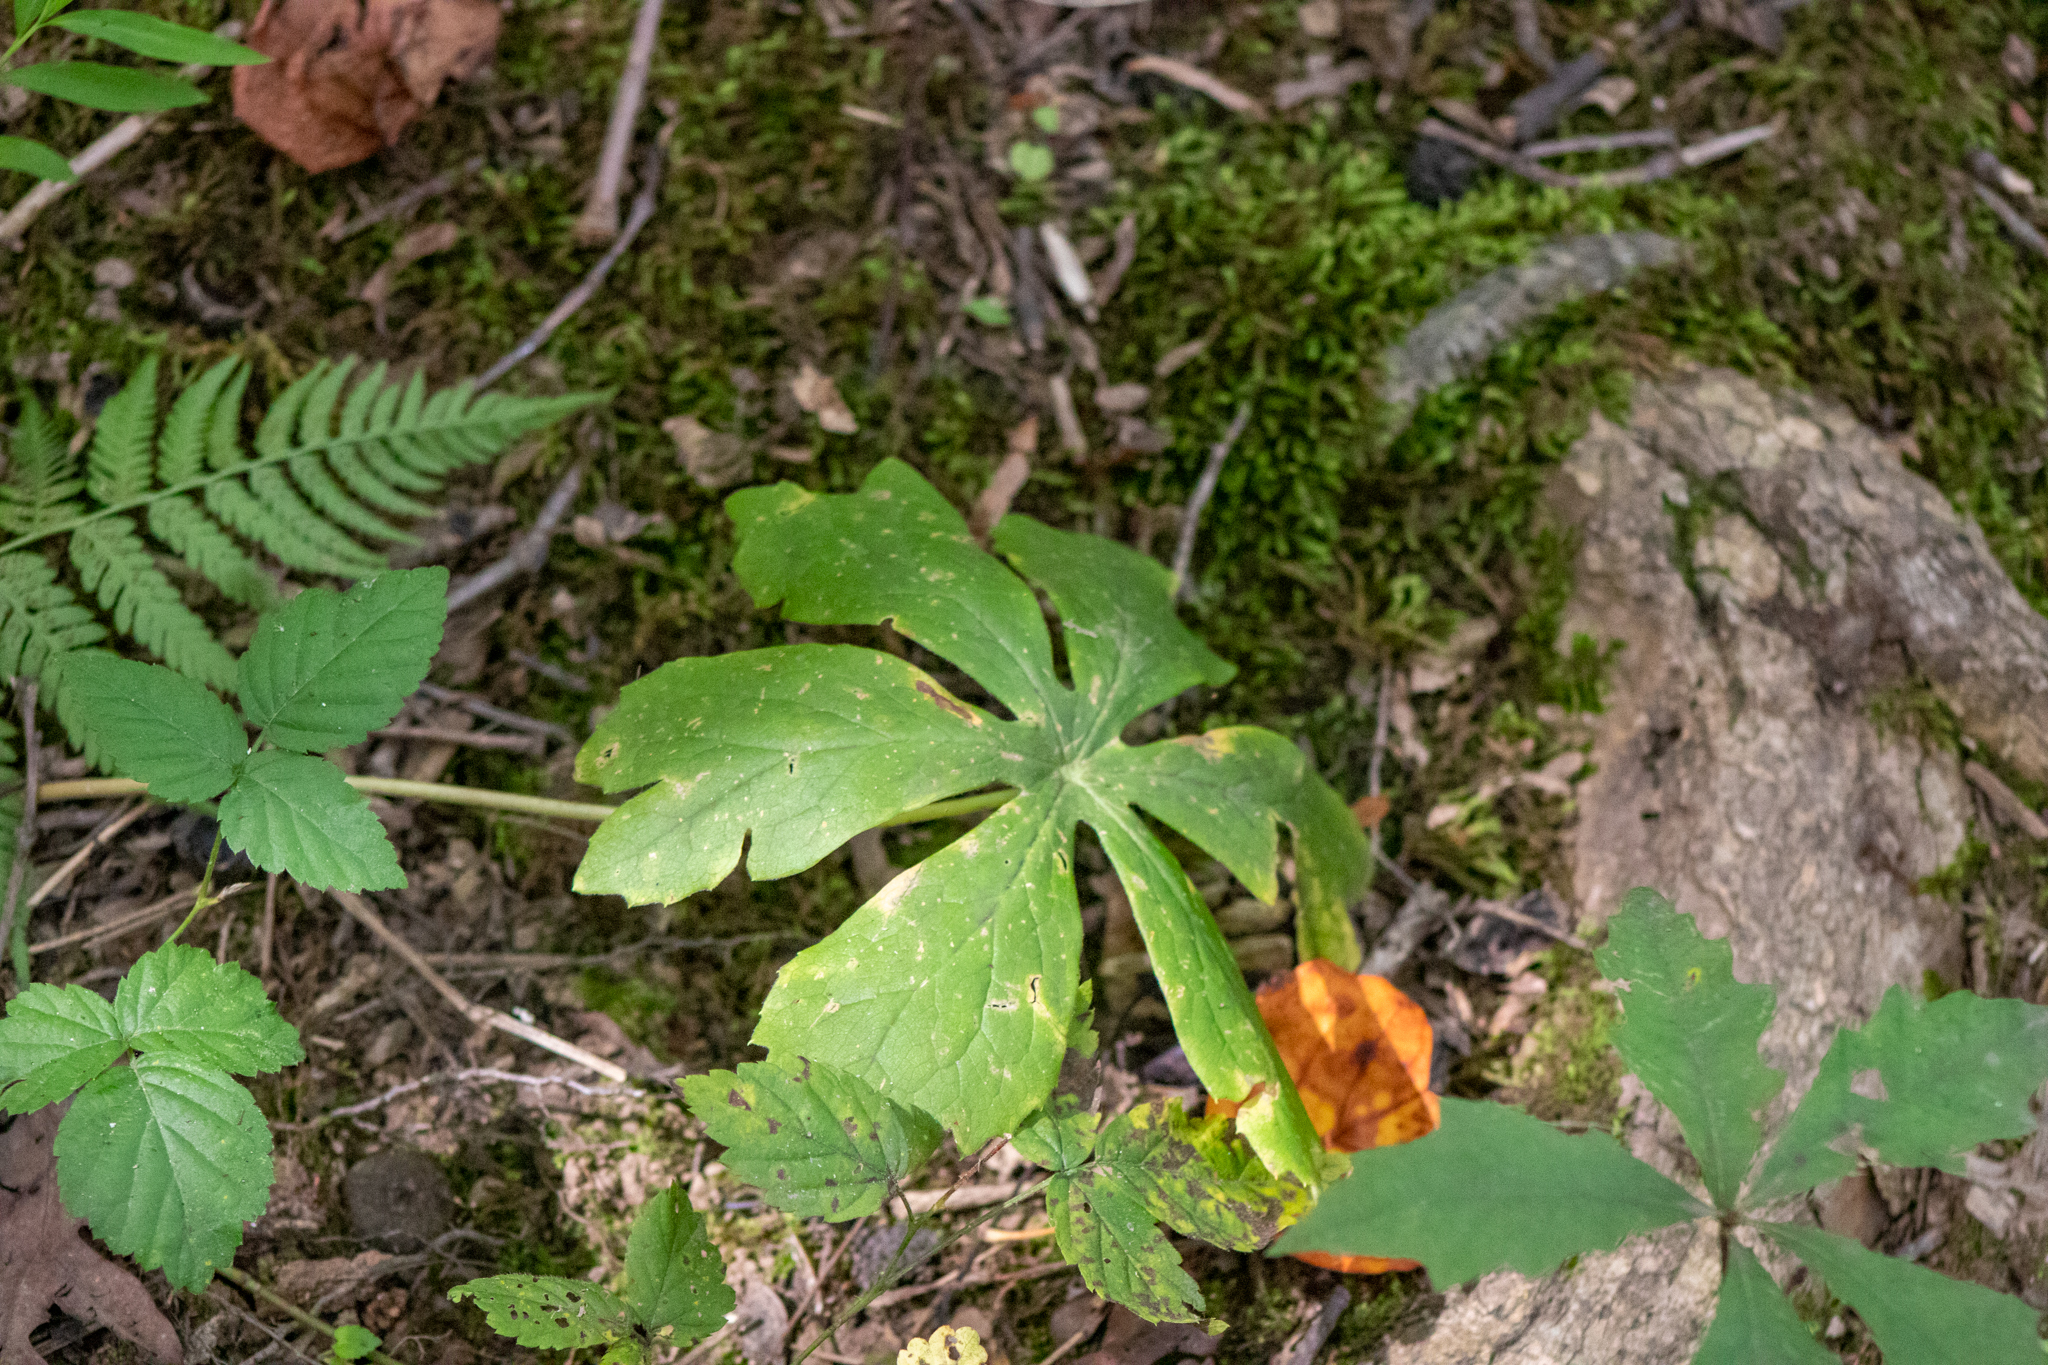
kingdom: Plantae
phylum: Tracheophyta
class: Magnoliopsida
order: Ranunculales
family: Berberidaceae
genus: Podophyllum
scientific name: Podophyllum peltatum
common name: Wild mandrake
